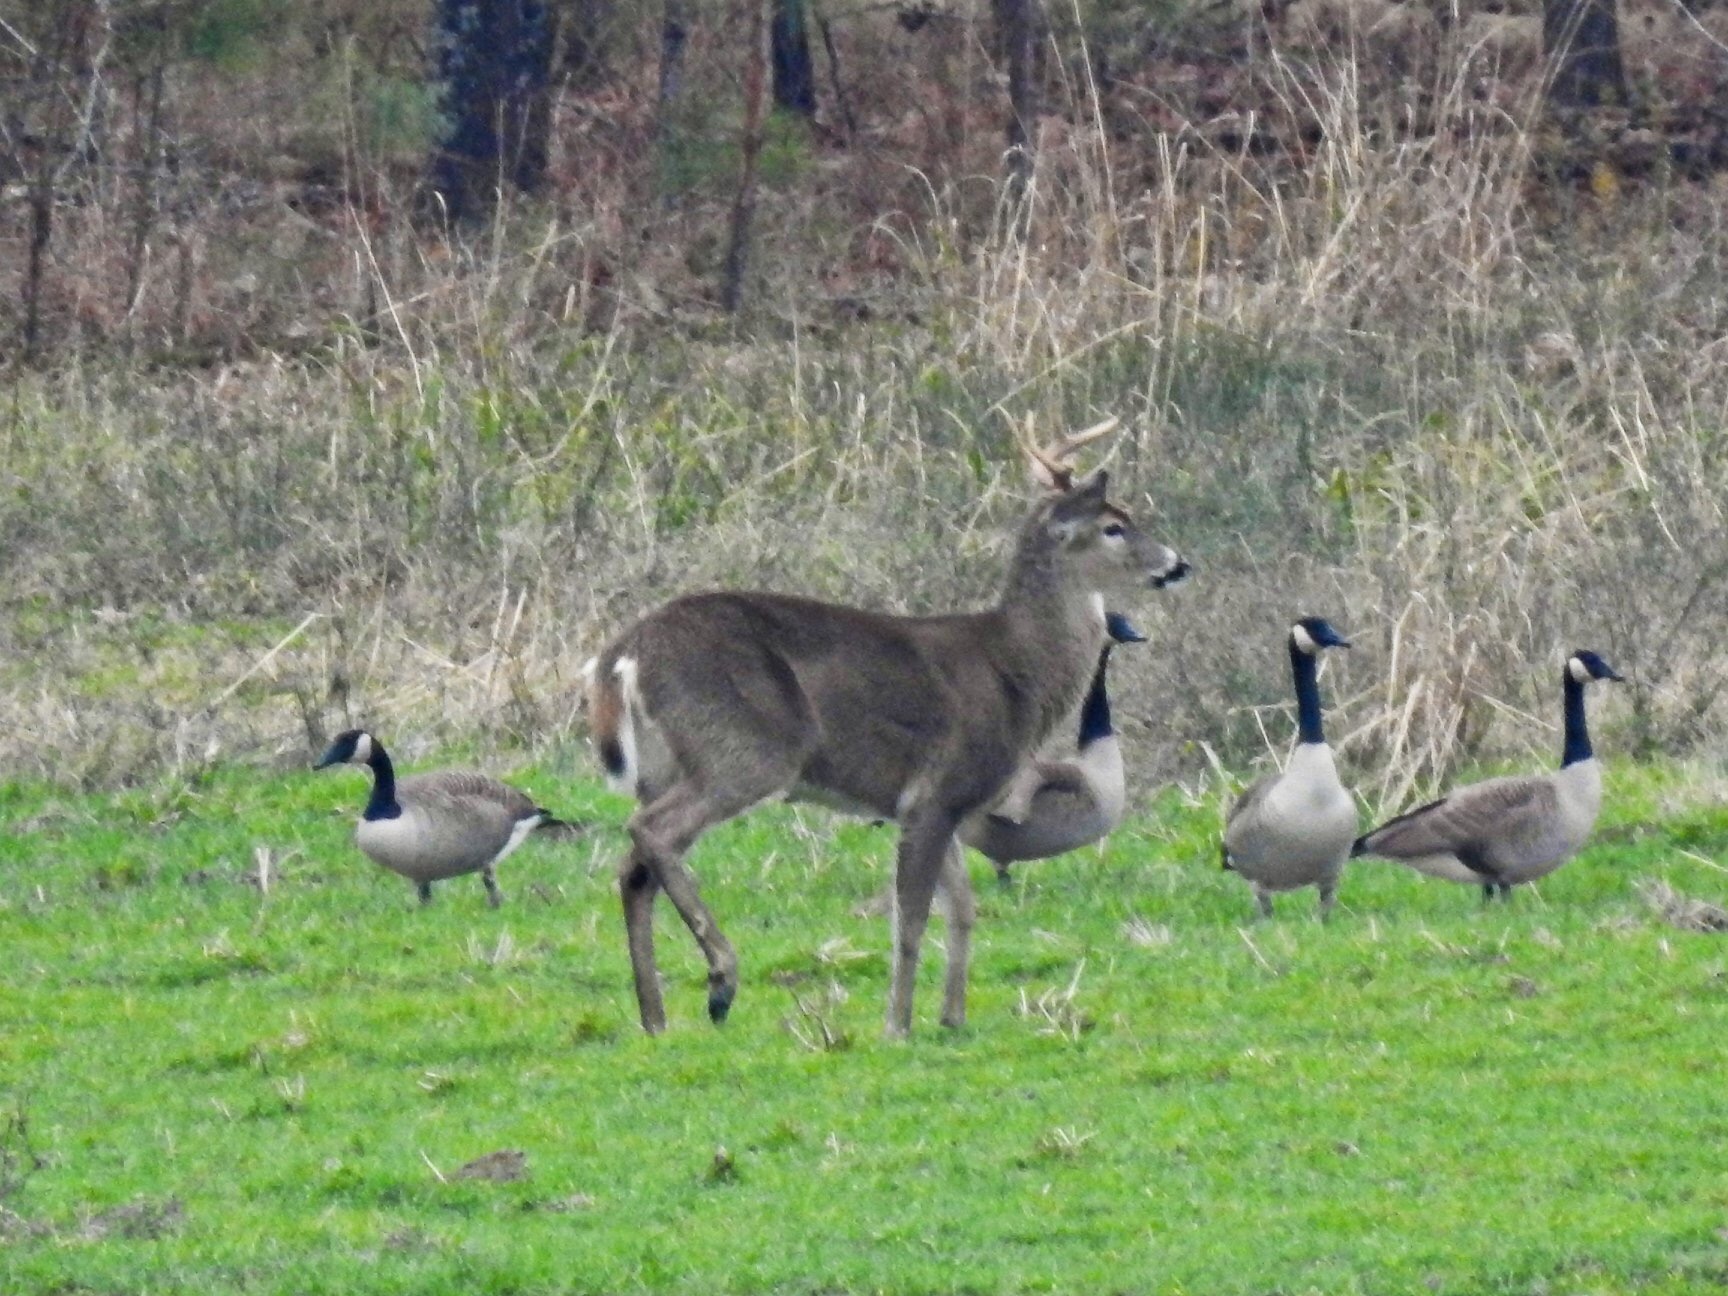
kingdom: Animalia
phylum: Chordata
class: Mammalia
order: Artiodactyla
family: Cervidae
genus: Odocoileus
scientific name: Odocoileus virginianus
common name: White-tailed deer
